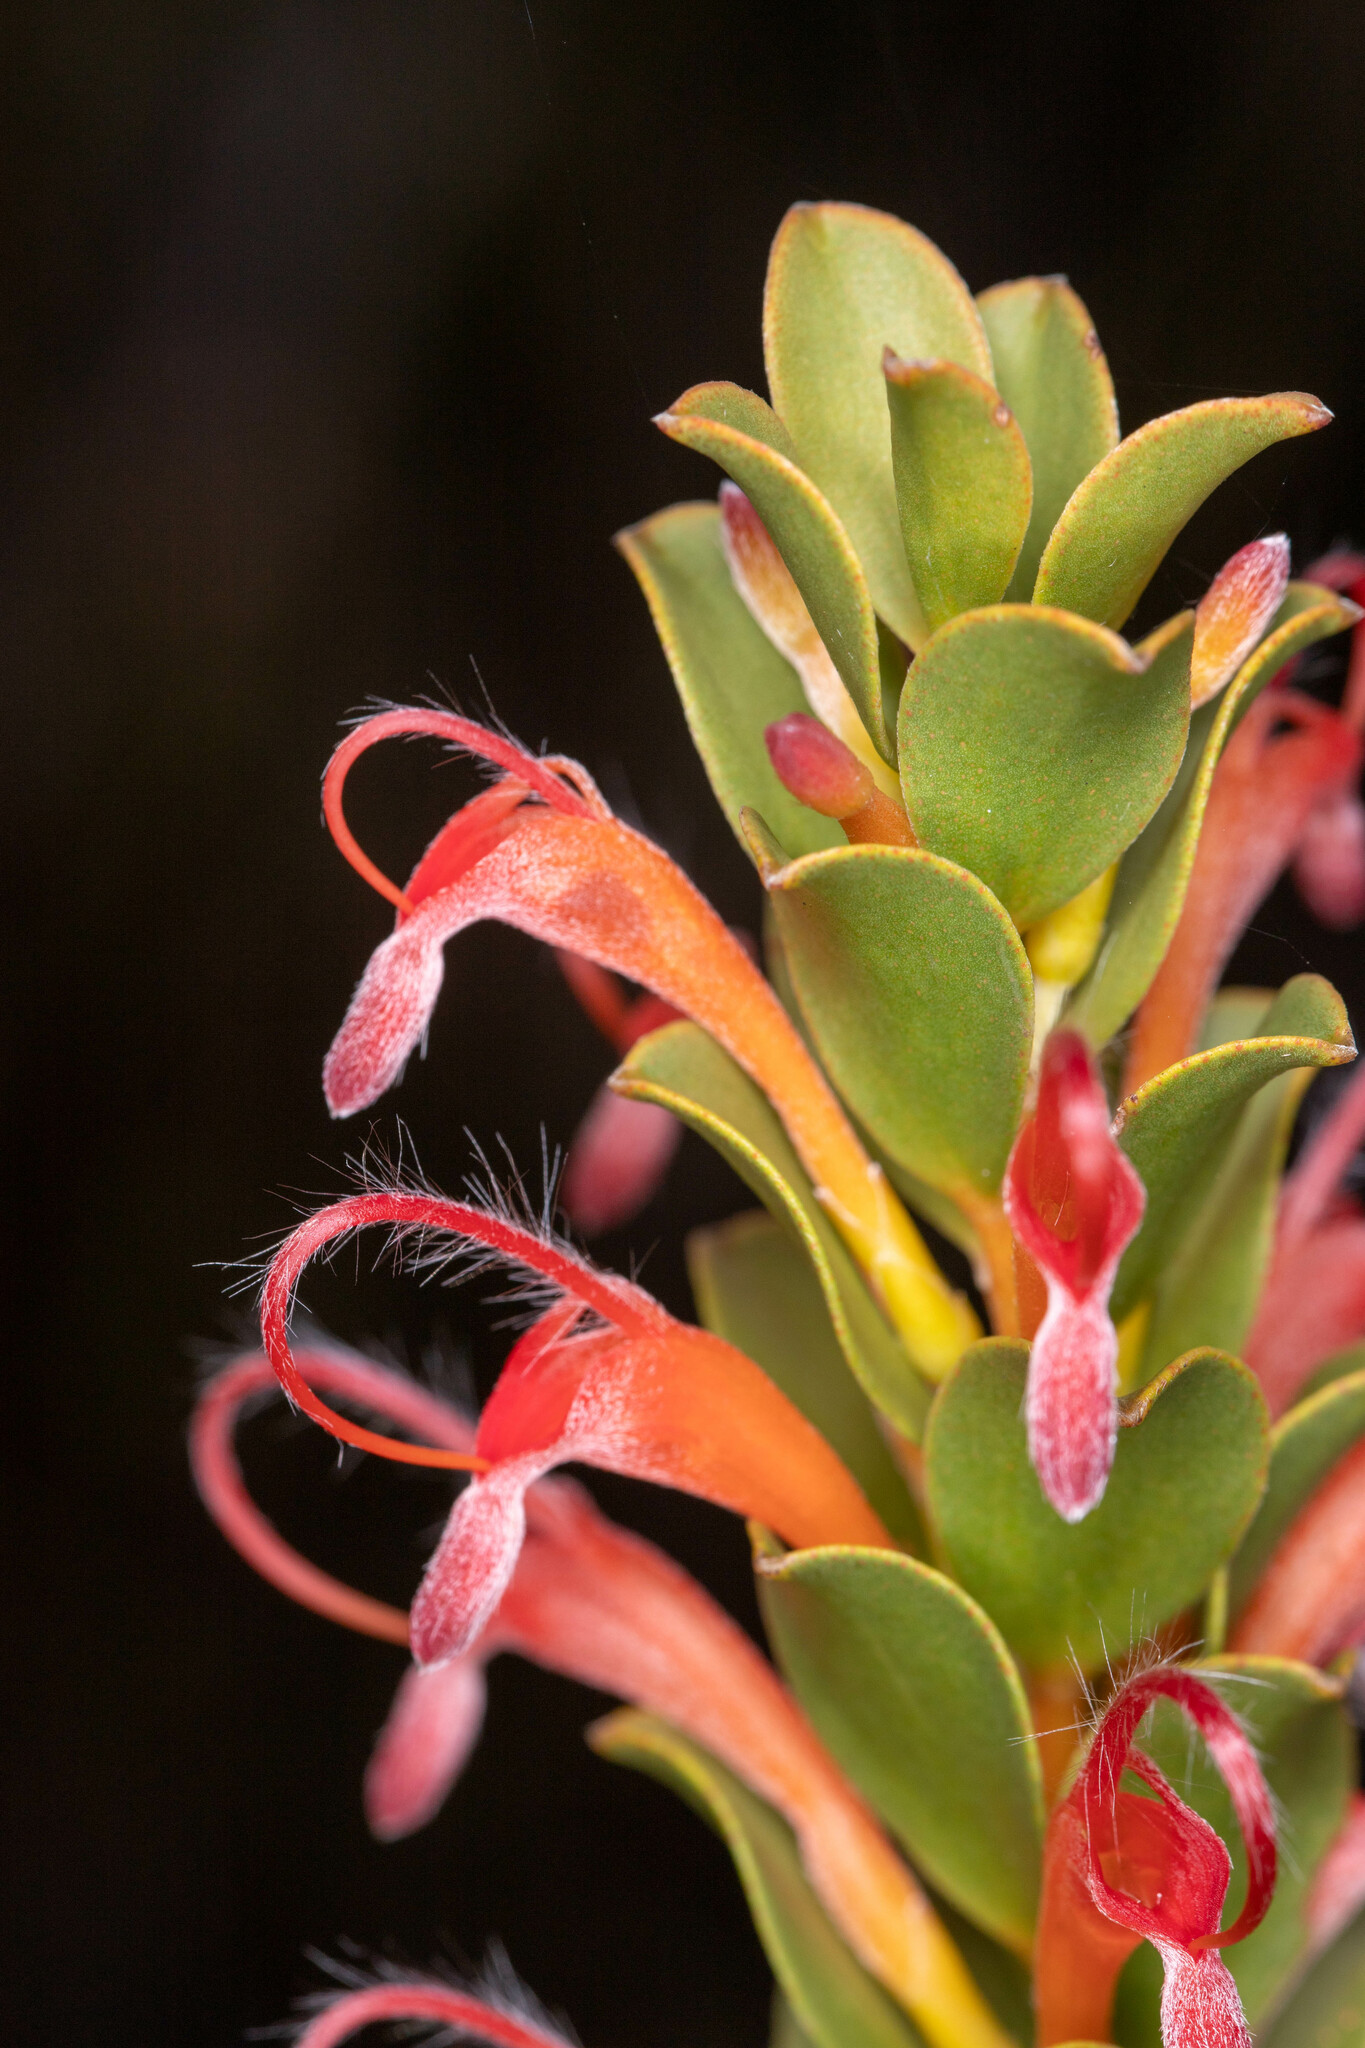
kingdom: Plantae
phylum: Tracheophyta
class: Magnoliopsida
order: Proteales
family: Proteaceae
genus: Adenanthos
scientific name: Adenanthos obovatus
